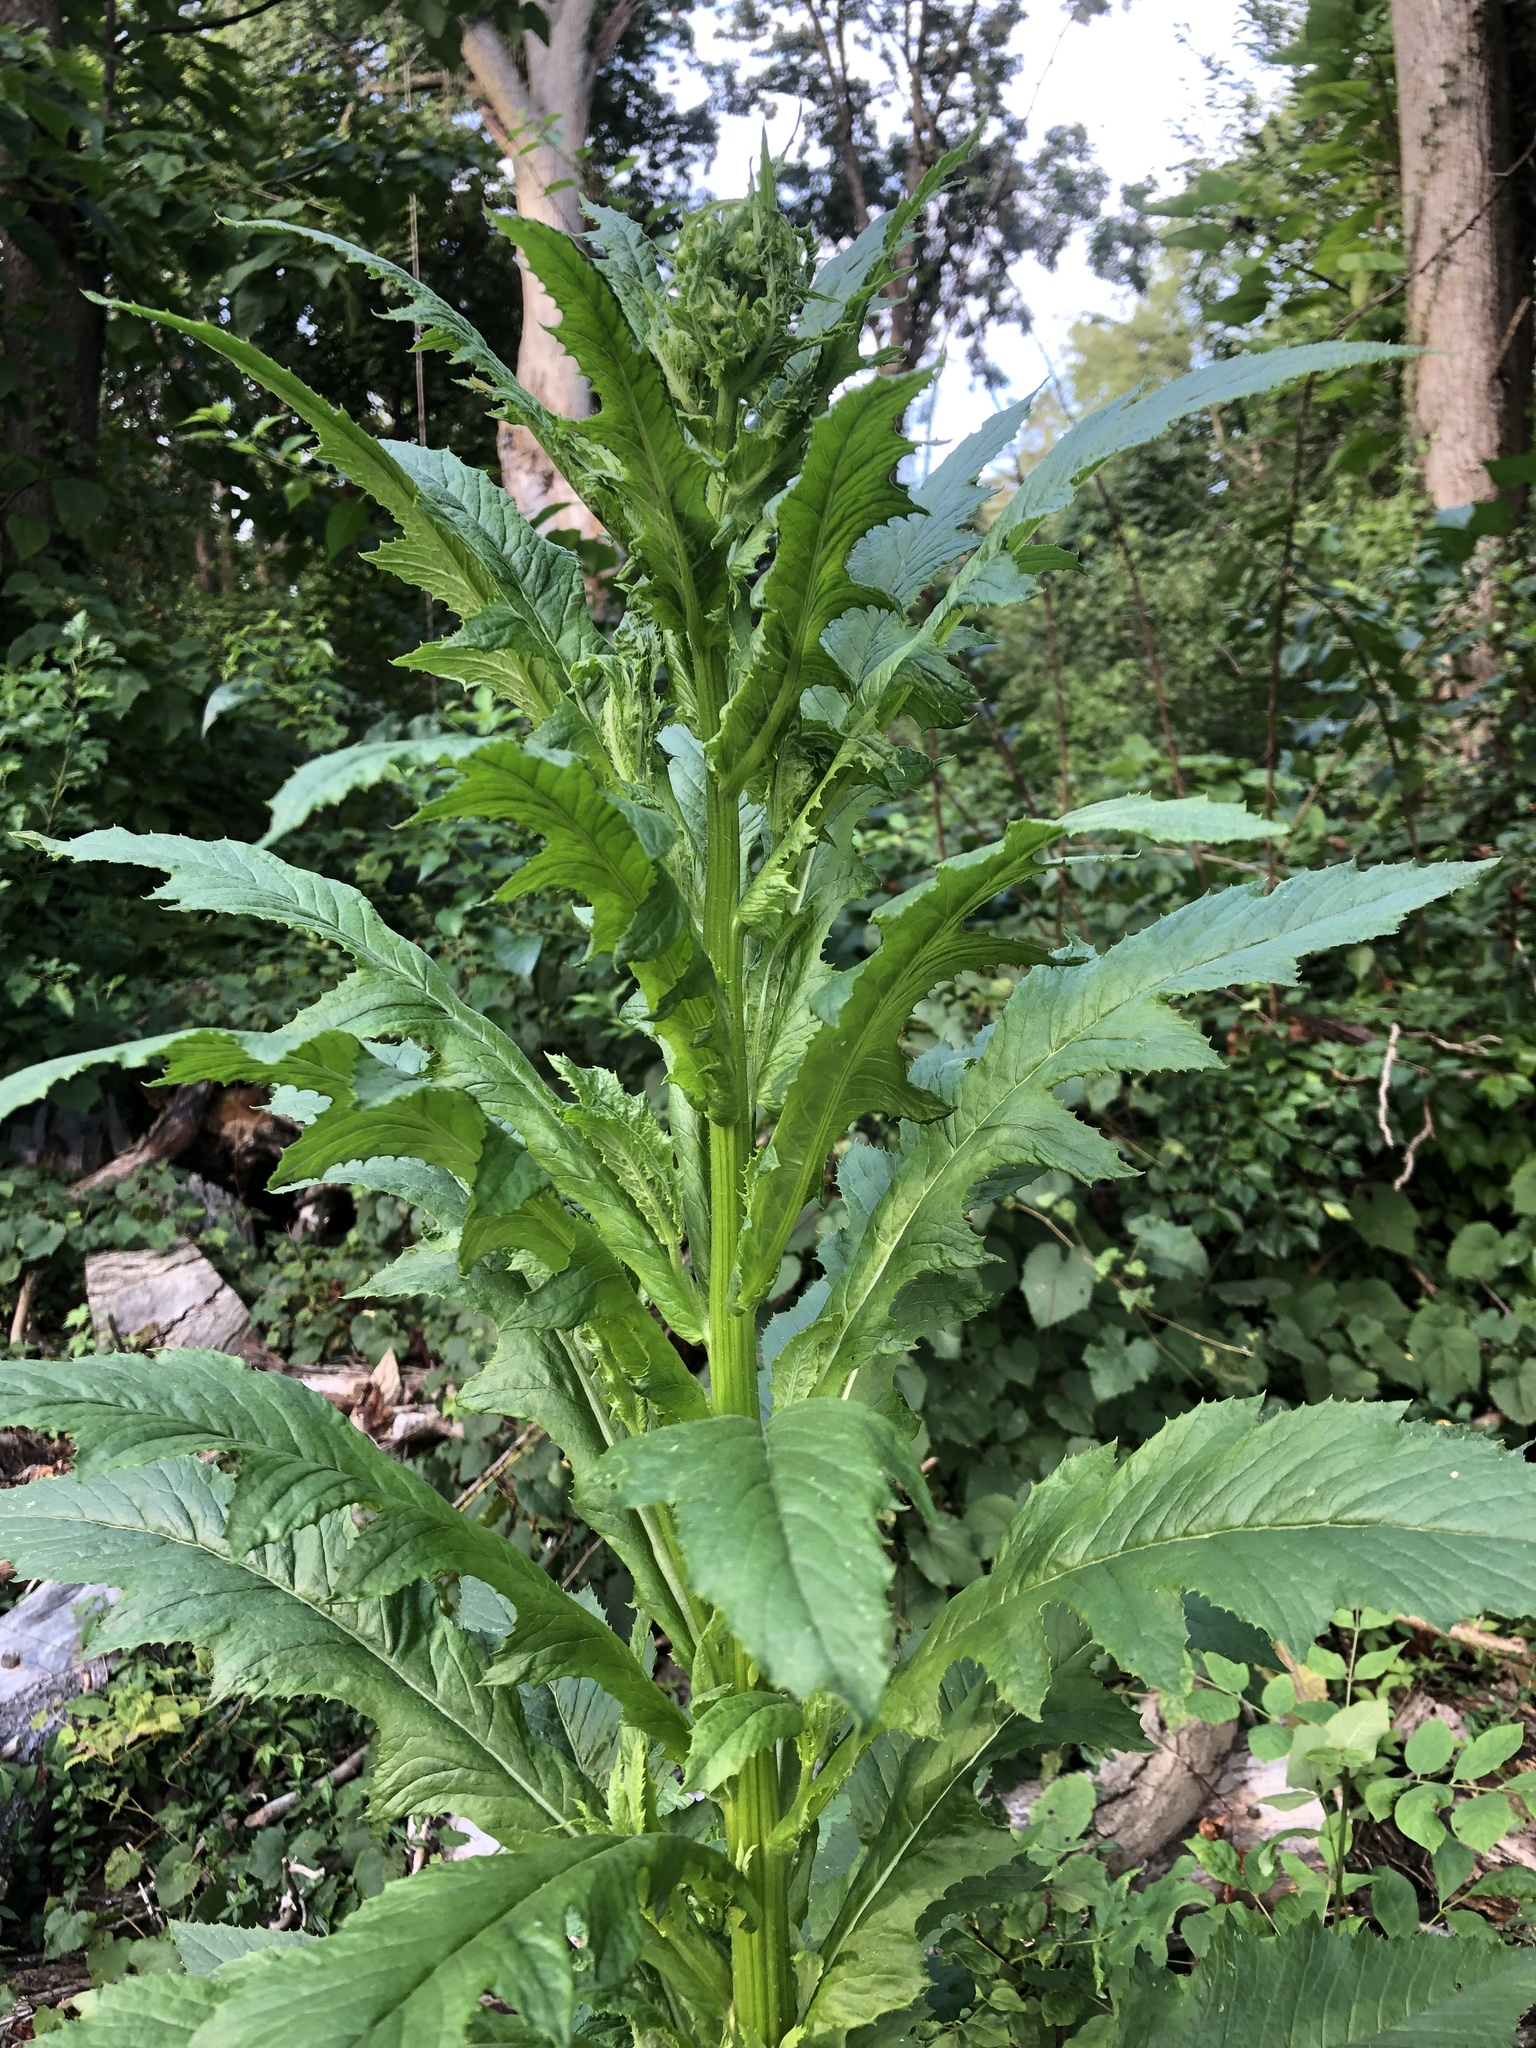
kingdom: Plantae
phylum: Tracheophyta
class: Magnoliopsida
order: Asterales
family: Asteraceae
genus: Erechtites
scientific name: Erechtites hieraciifolius
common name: American burnweed
